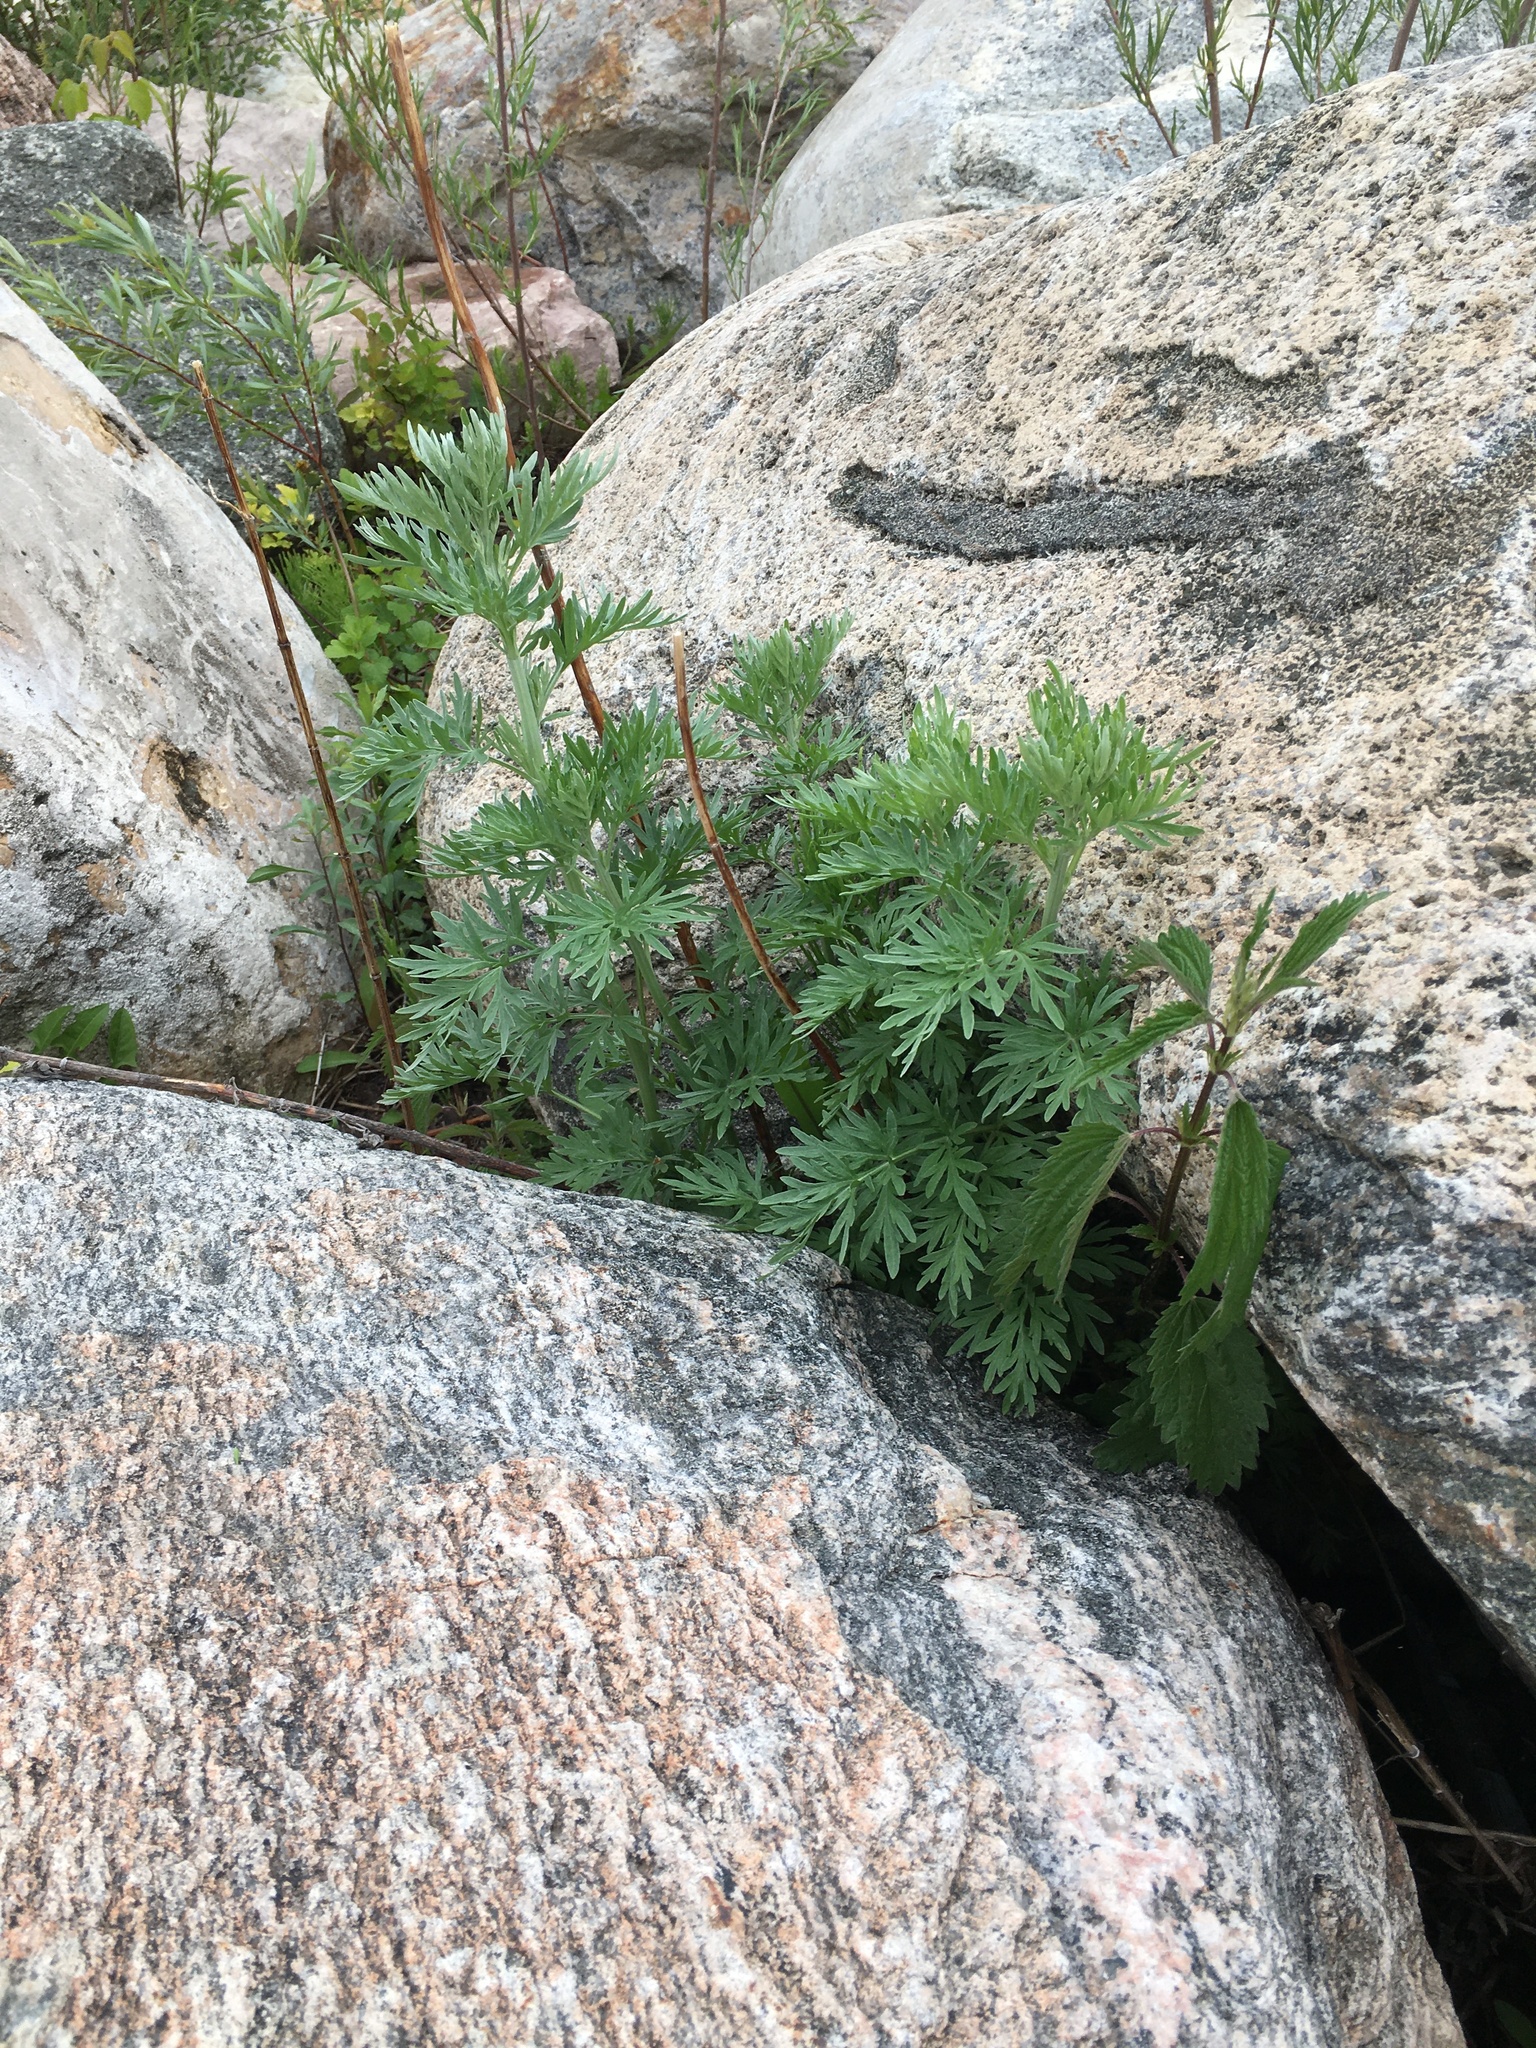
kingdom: Plantae
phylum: Tracheophyta
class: Magnoliopsida
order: Asterales
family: Asteraceae
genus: Artemisia
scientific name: Artemisia absinthium
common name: Wormwood
